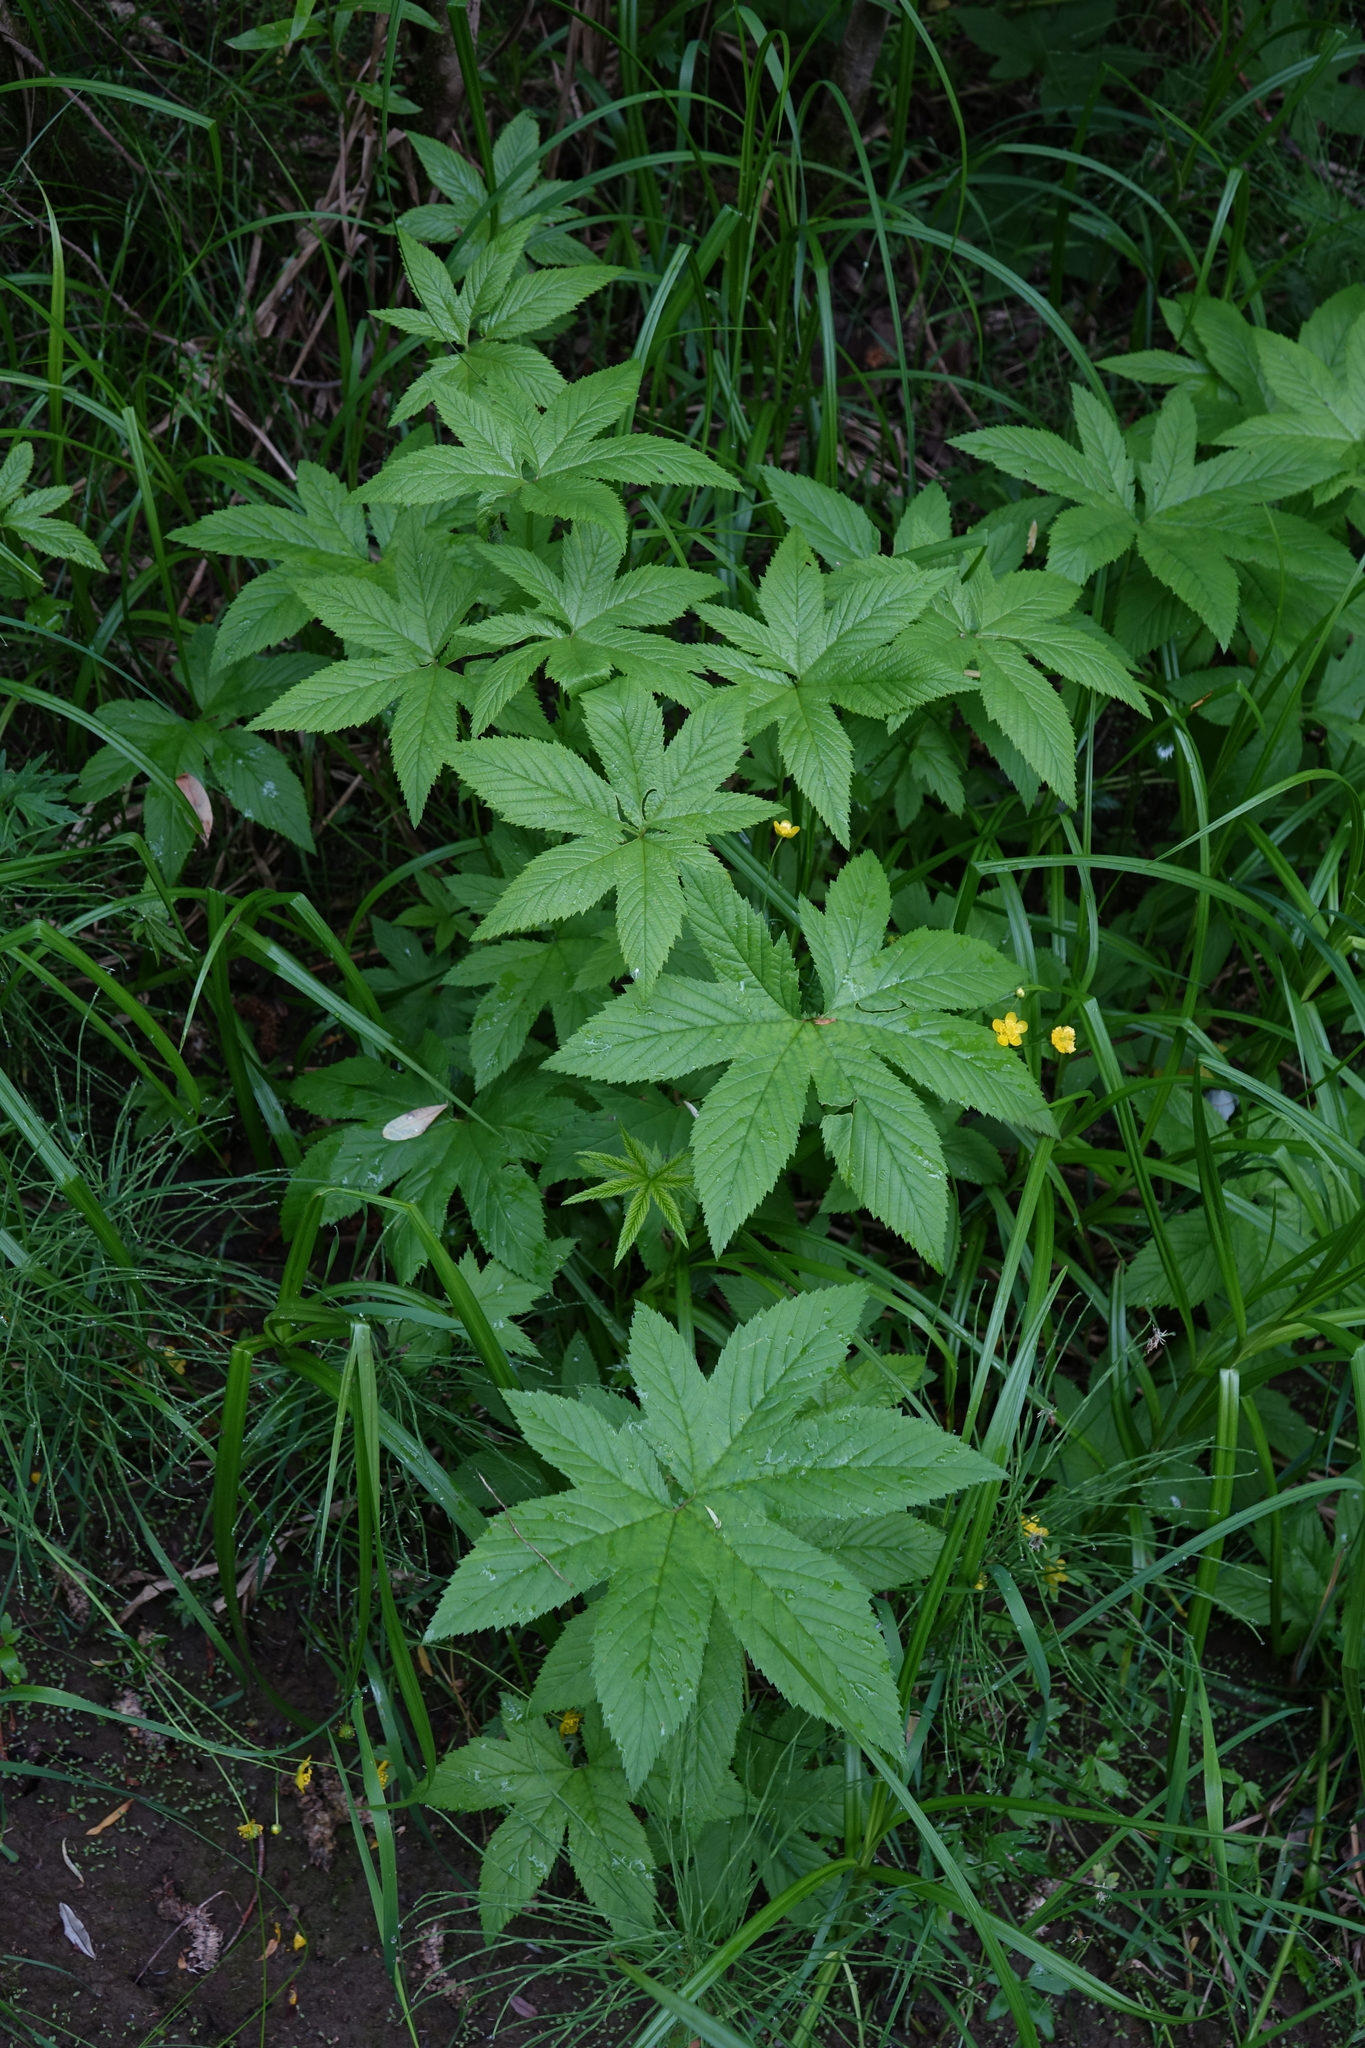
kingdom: Plantae
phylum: Tracheophyta
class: Magnoliopsida
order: Rosales
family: Rosaceae
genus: Filipendula
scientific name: Filipendula digitata
